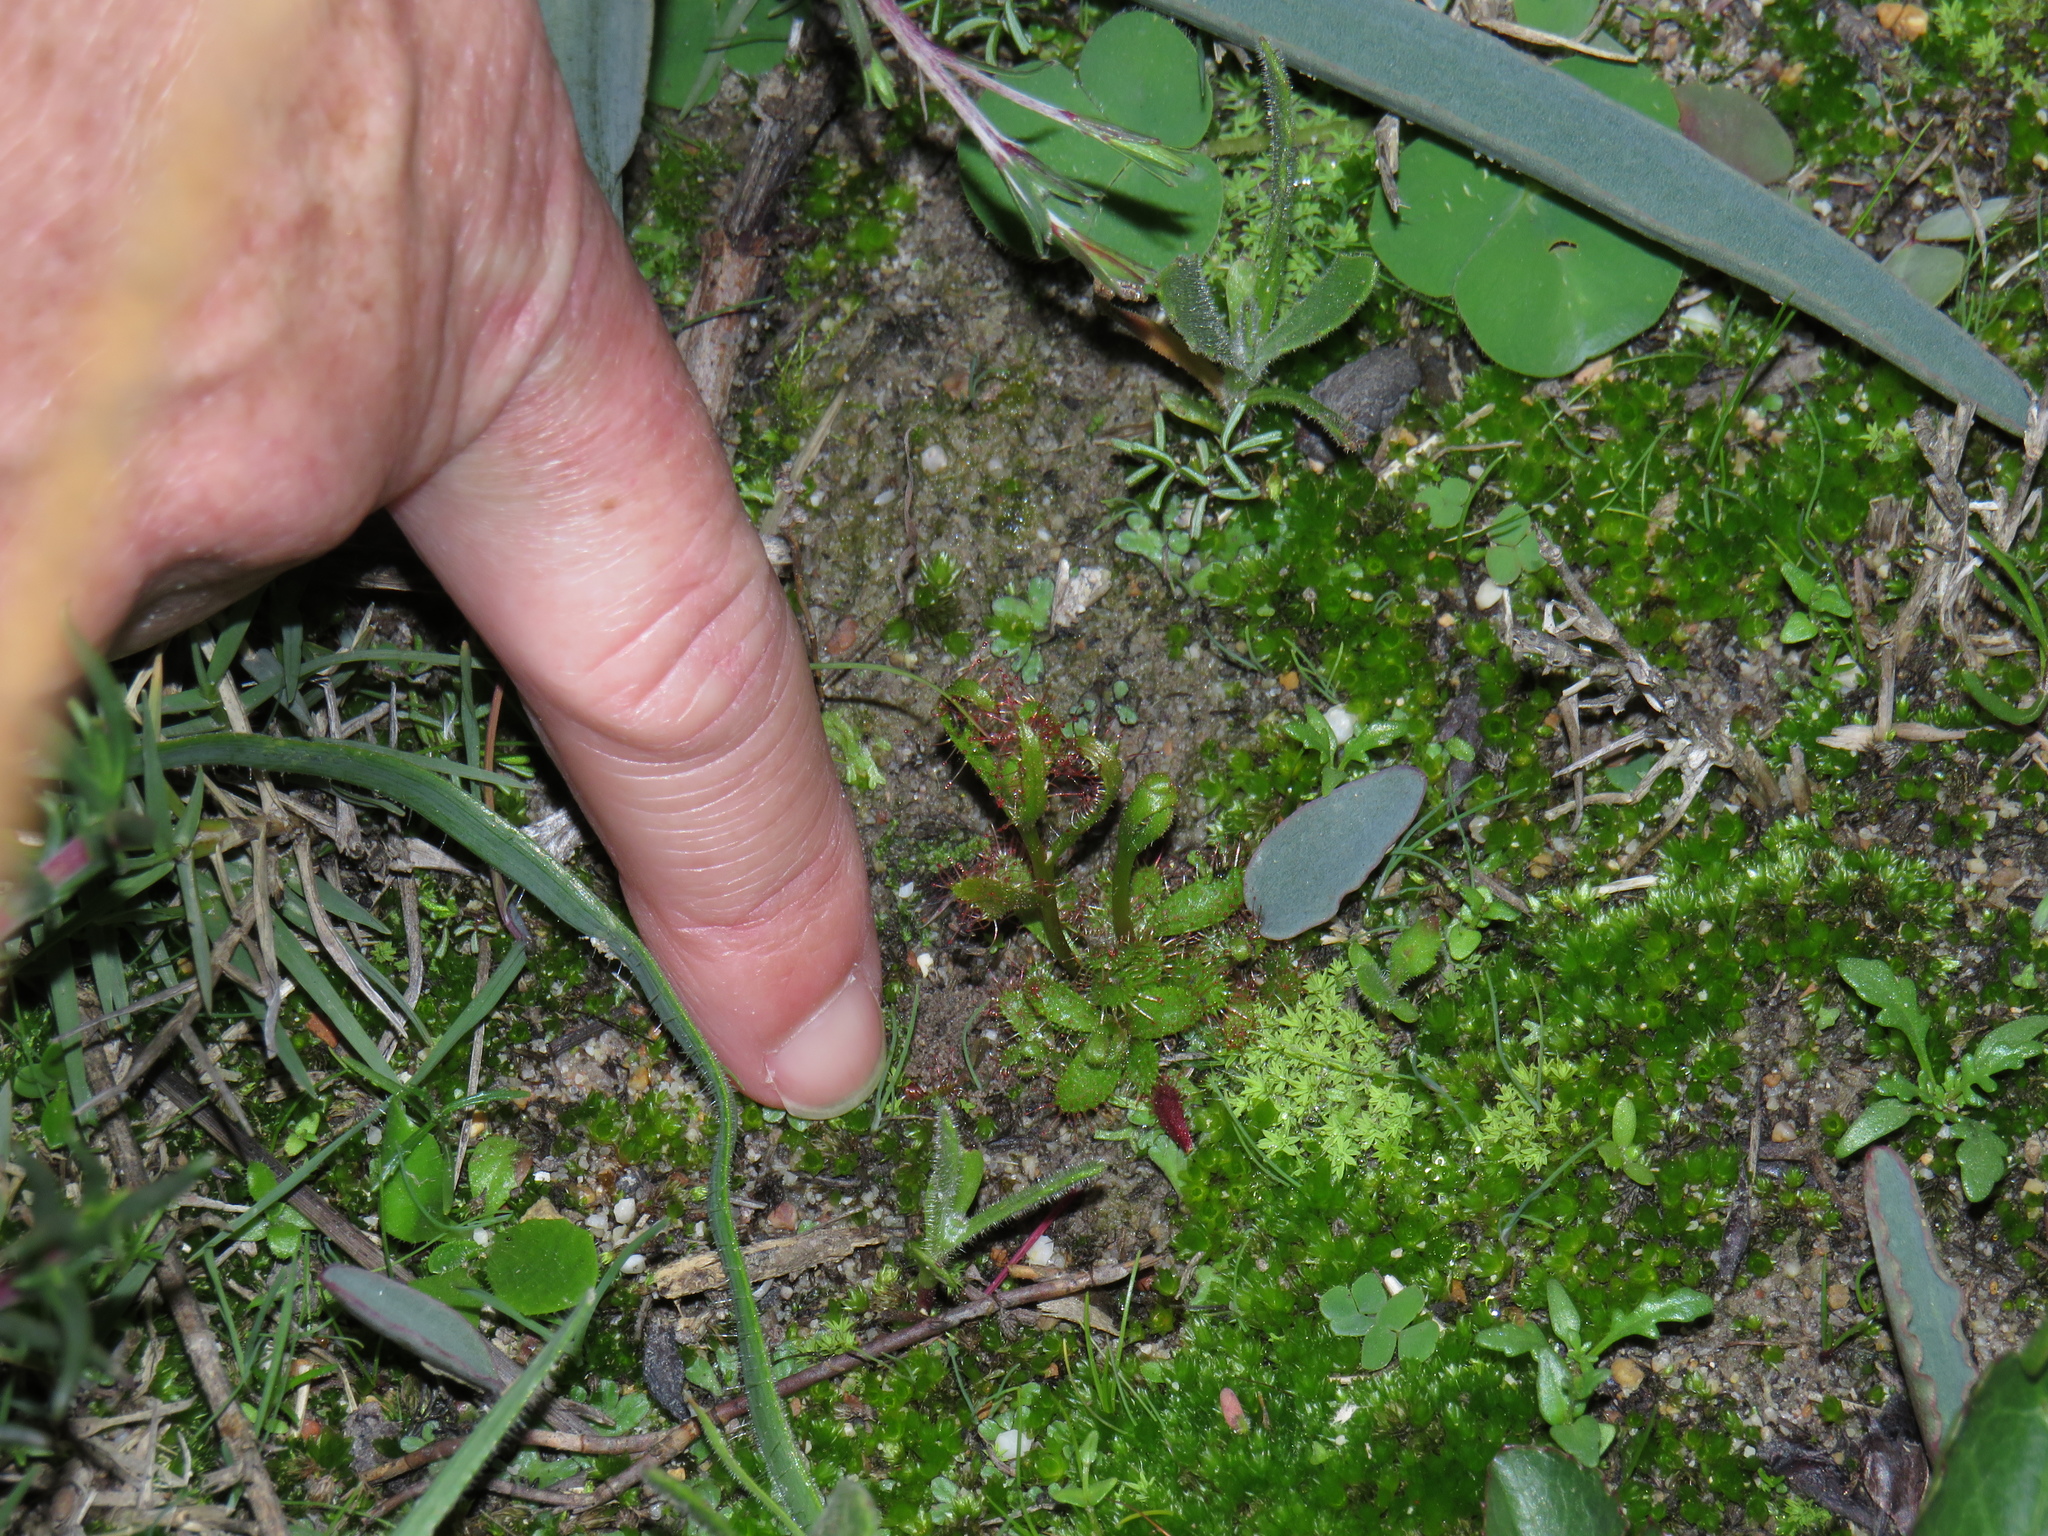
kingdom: Plantae
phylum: Tracheophyta
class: Magnoliopsida
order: Caryophyllales
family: Droseraceae
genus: Drosera
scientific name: Drosera cistiflora
